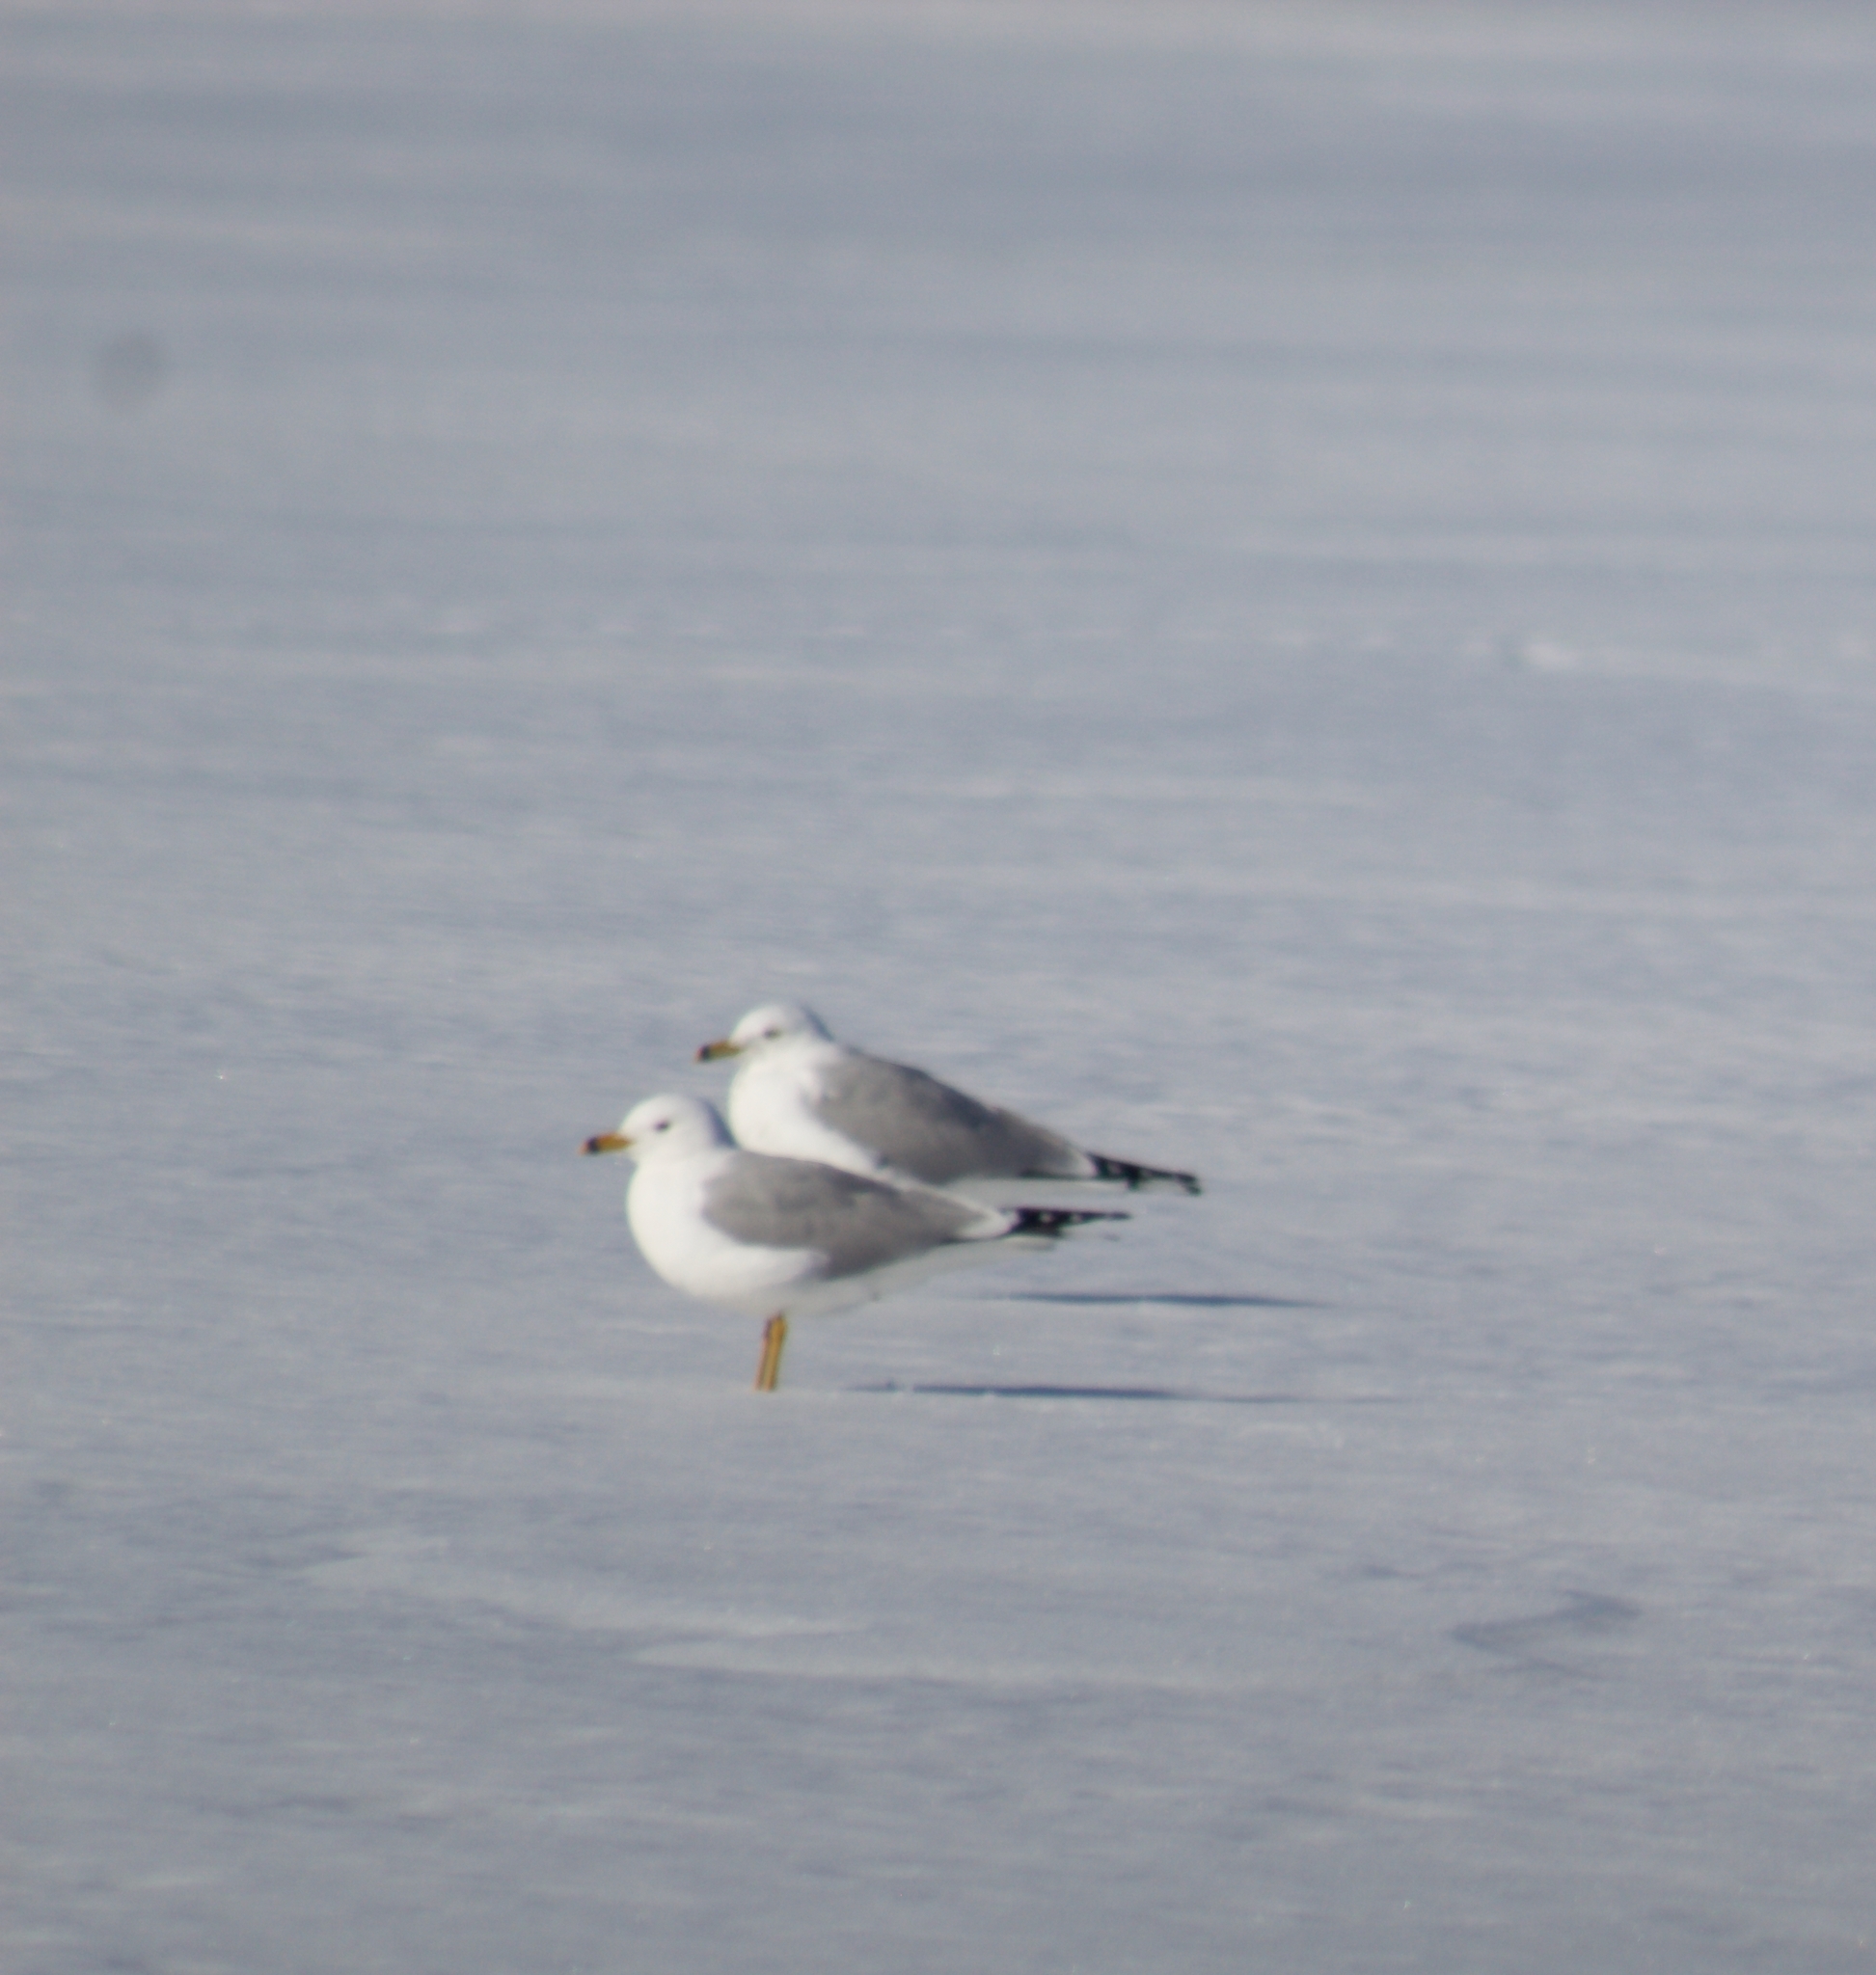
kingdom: Animalia
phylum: Chordata
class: Aves
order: Charadriiformes
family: Laridae
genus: Larus
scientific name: Larus delawarensis
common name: Ring-billed gull
